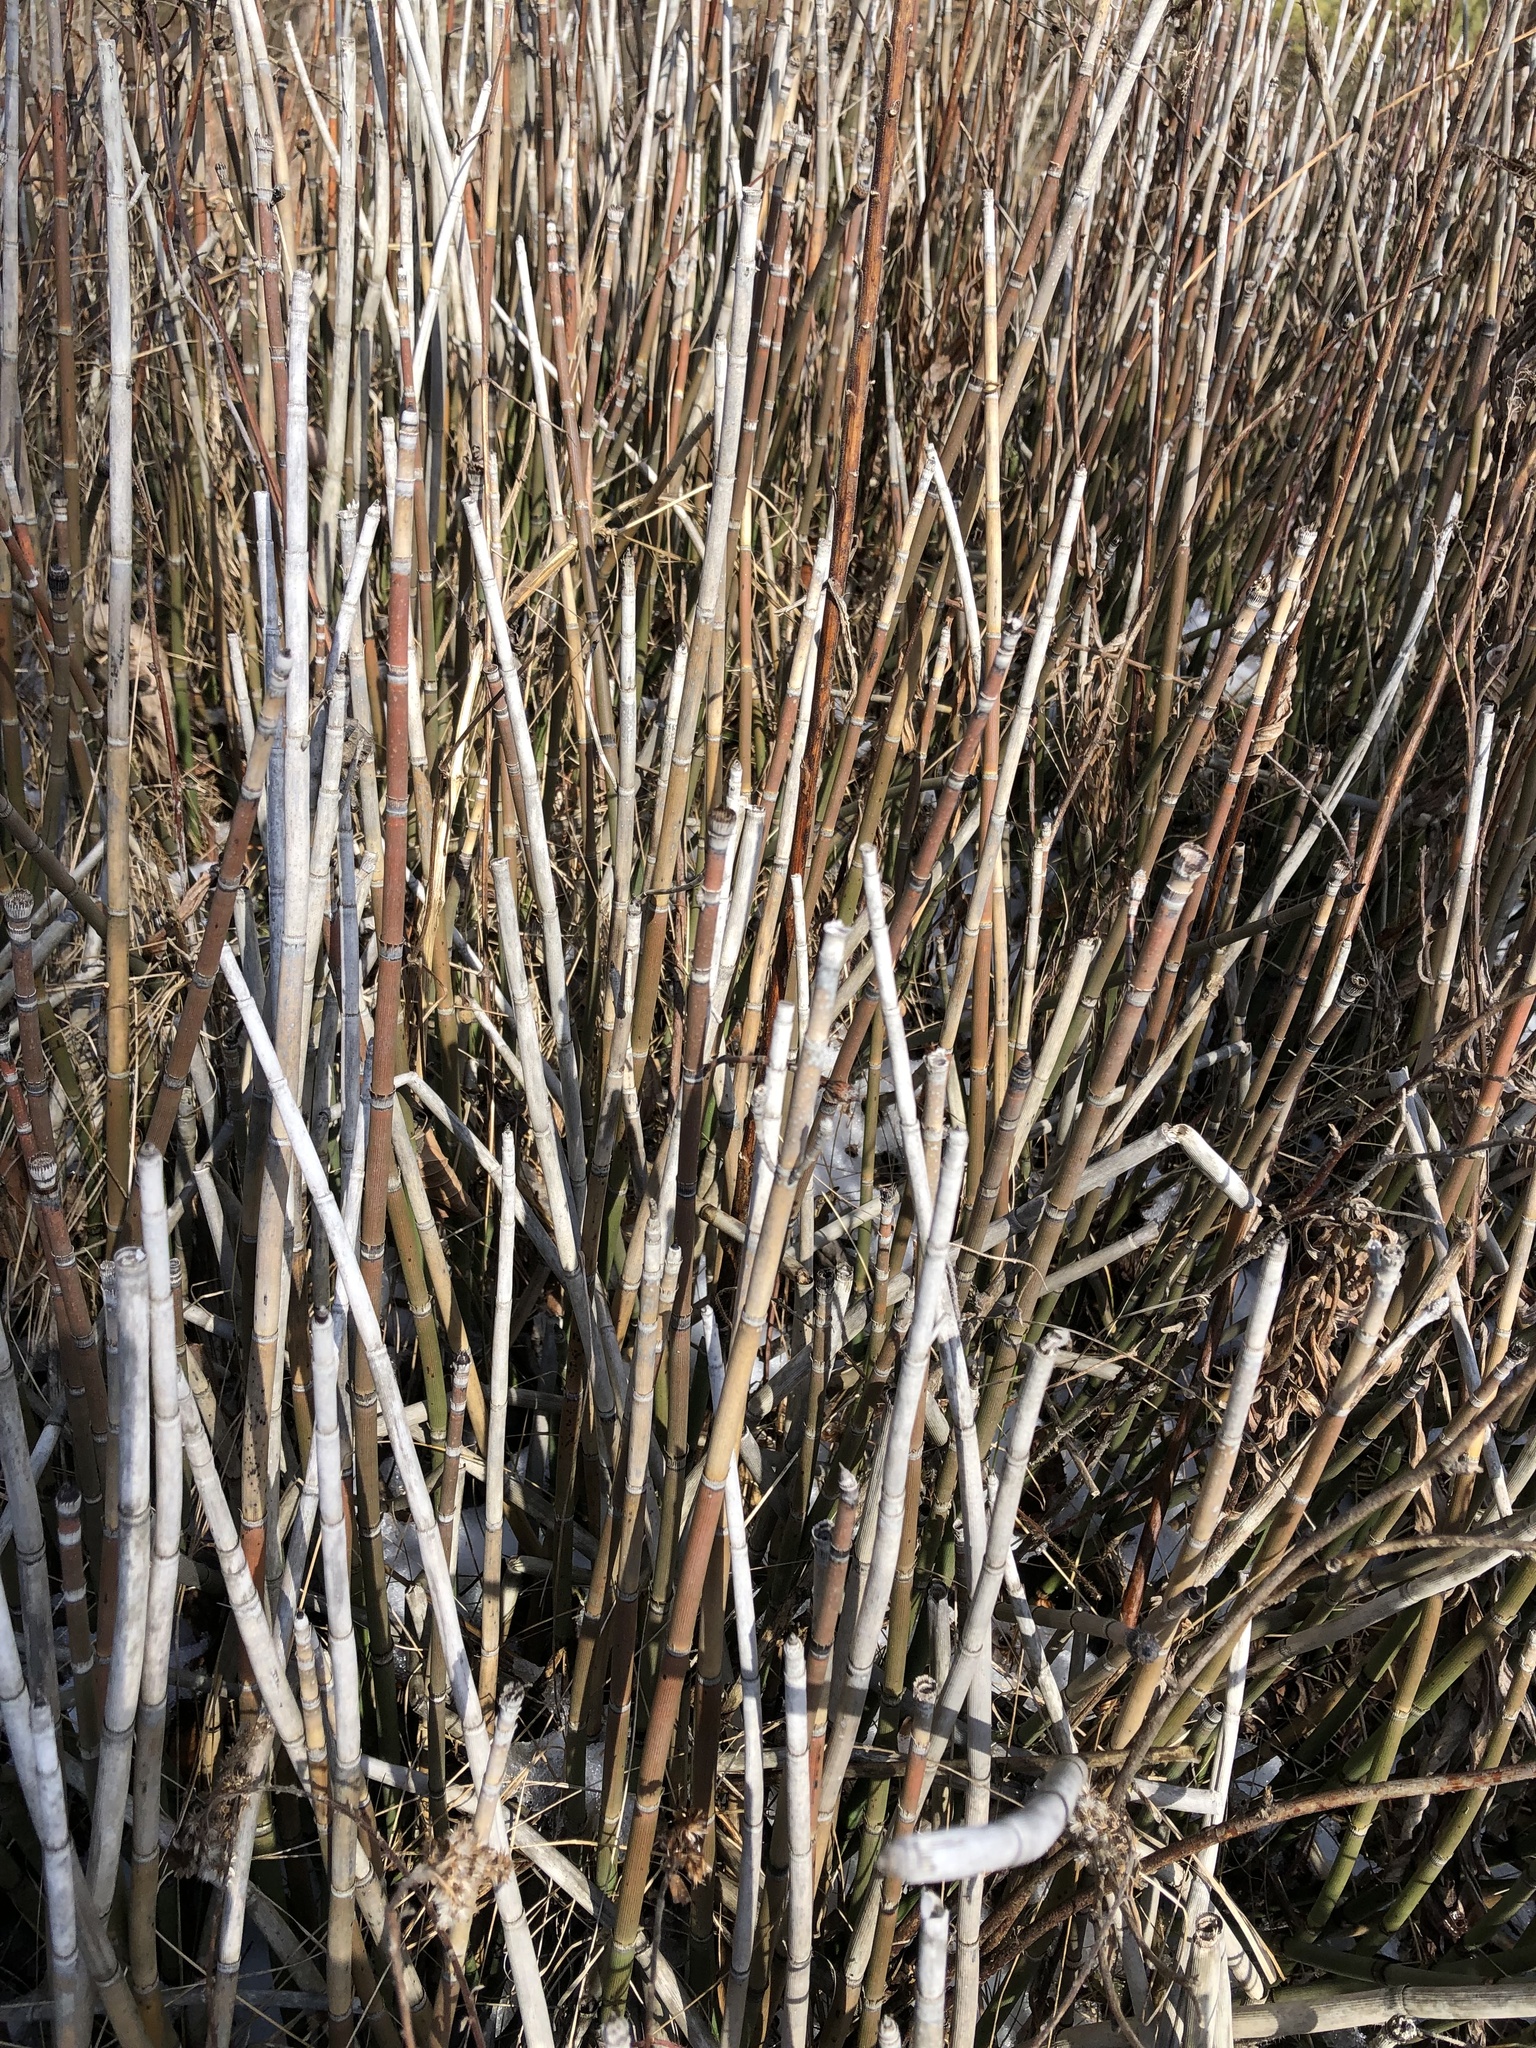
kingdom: Plantae
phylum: Tracheophyta
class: Polypodiopsida
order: Equisetales
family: Equisetaceae
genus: Equisetum
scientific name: Equisetum praealtum
